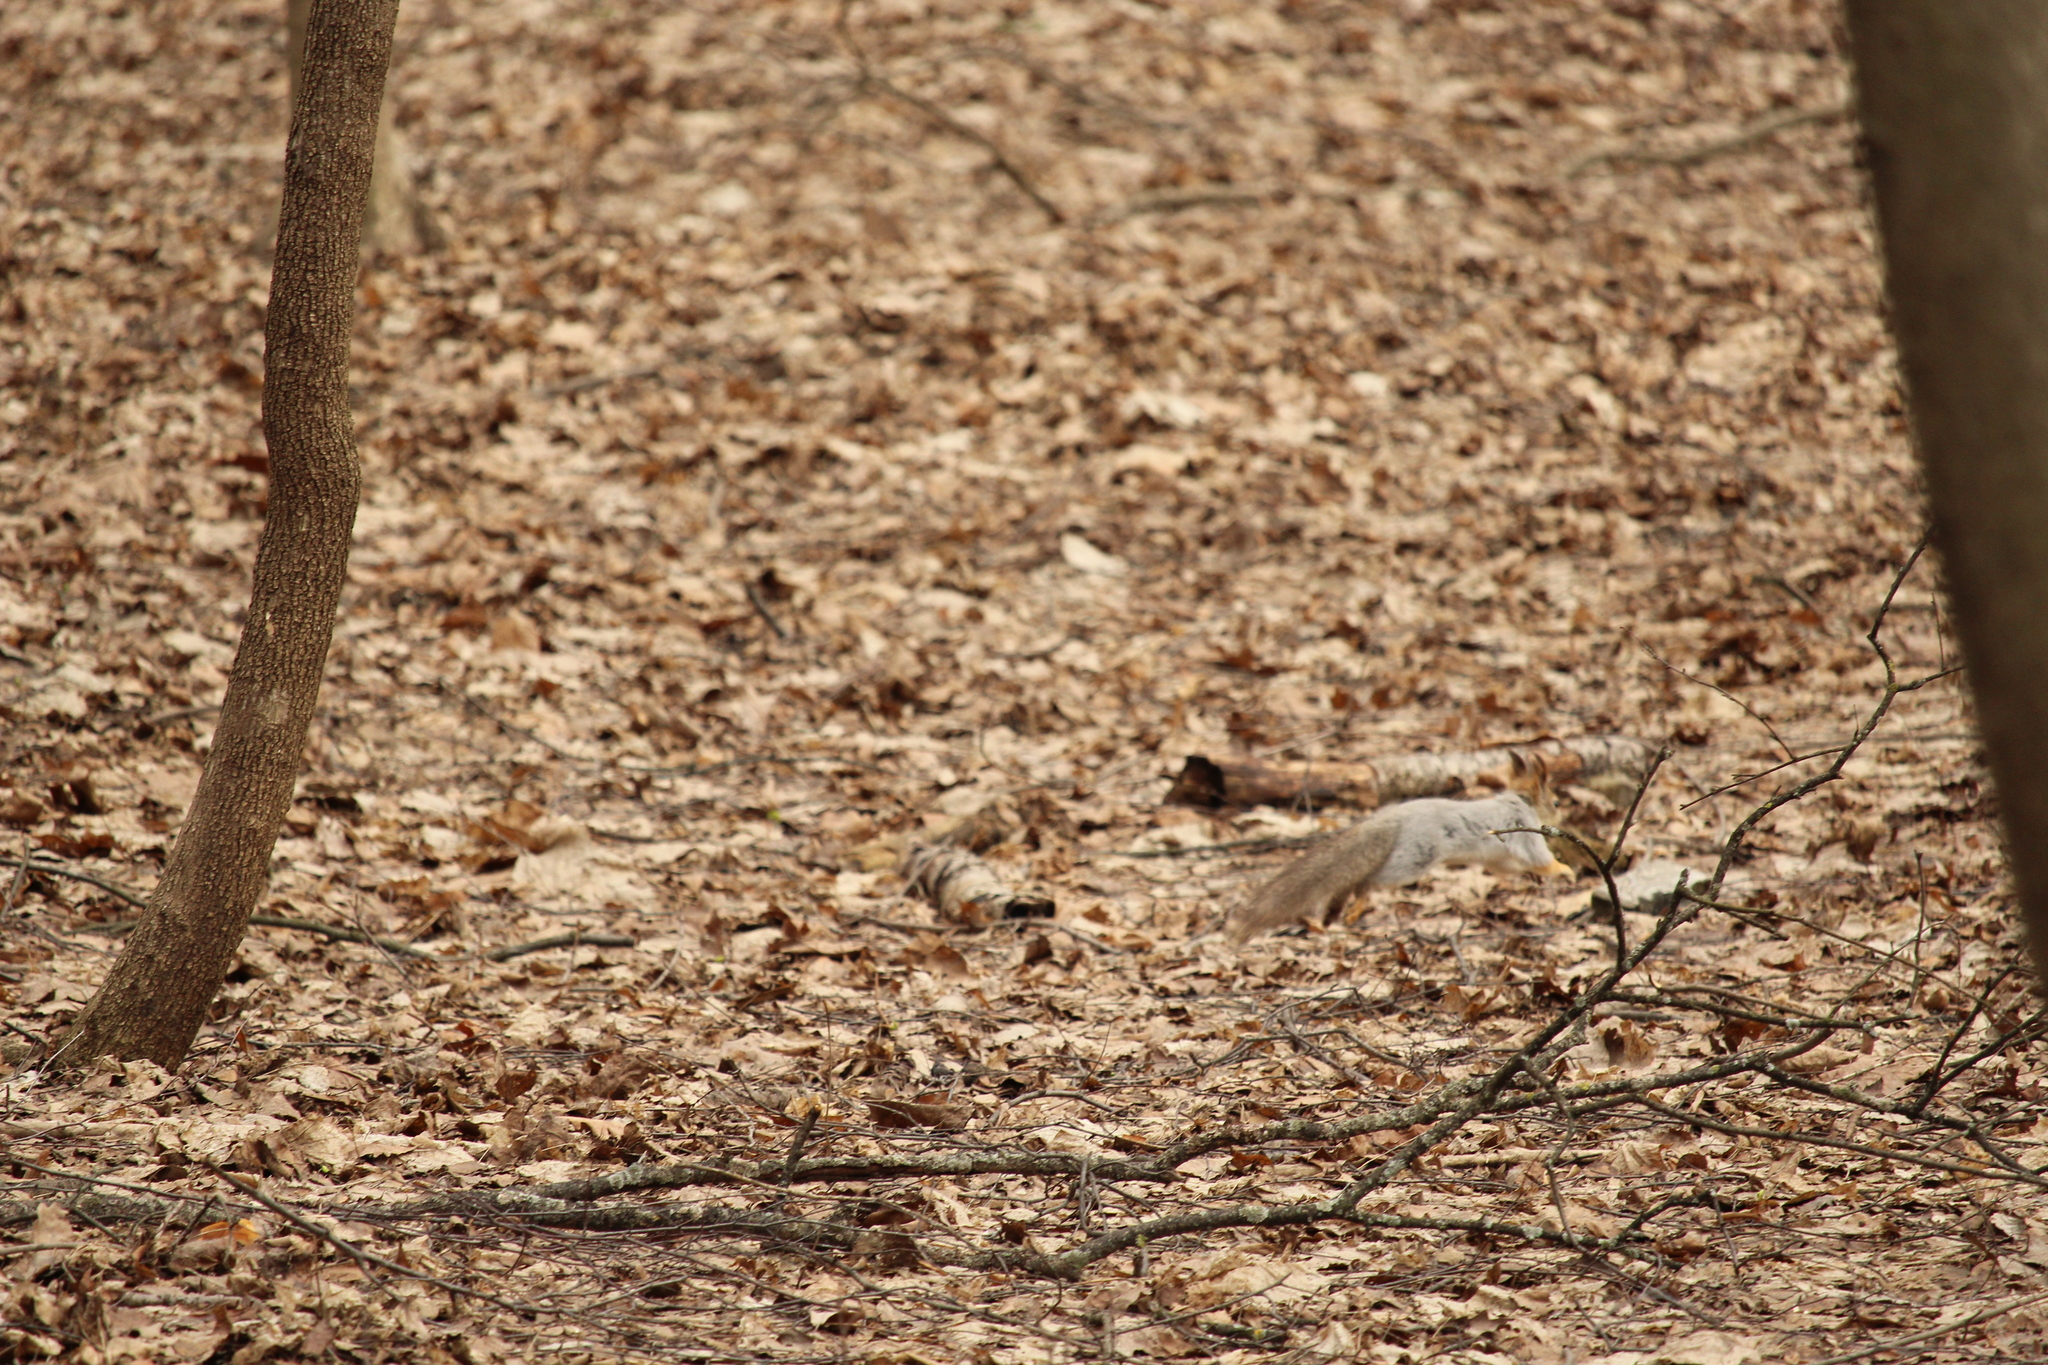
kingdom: Animalia
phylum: Chordata
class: Mammalia
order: Rodentia
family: Sciuridae
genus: Sciurus
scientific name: Sciurus vulgaris
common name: Eurasian red squirrel
